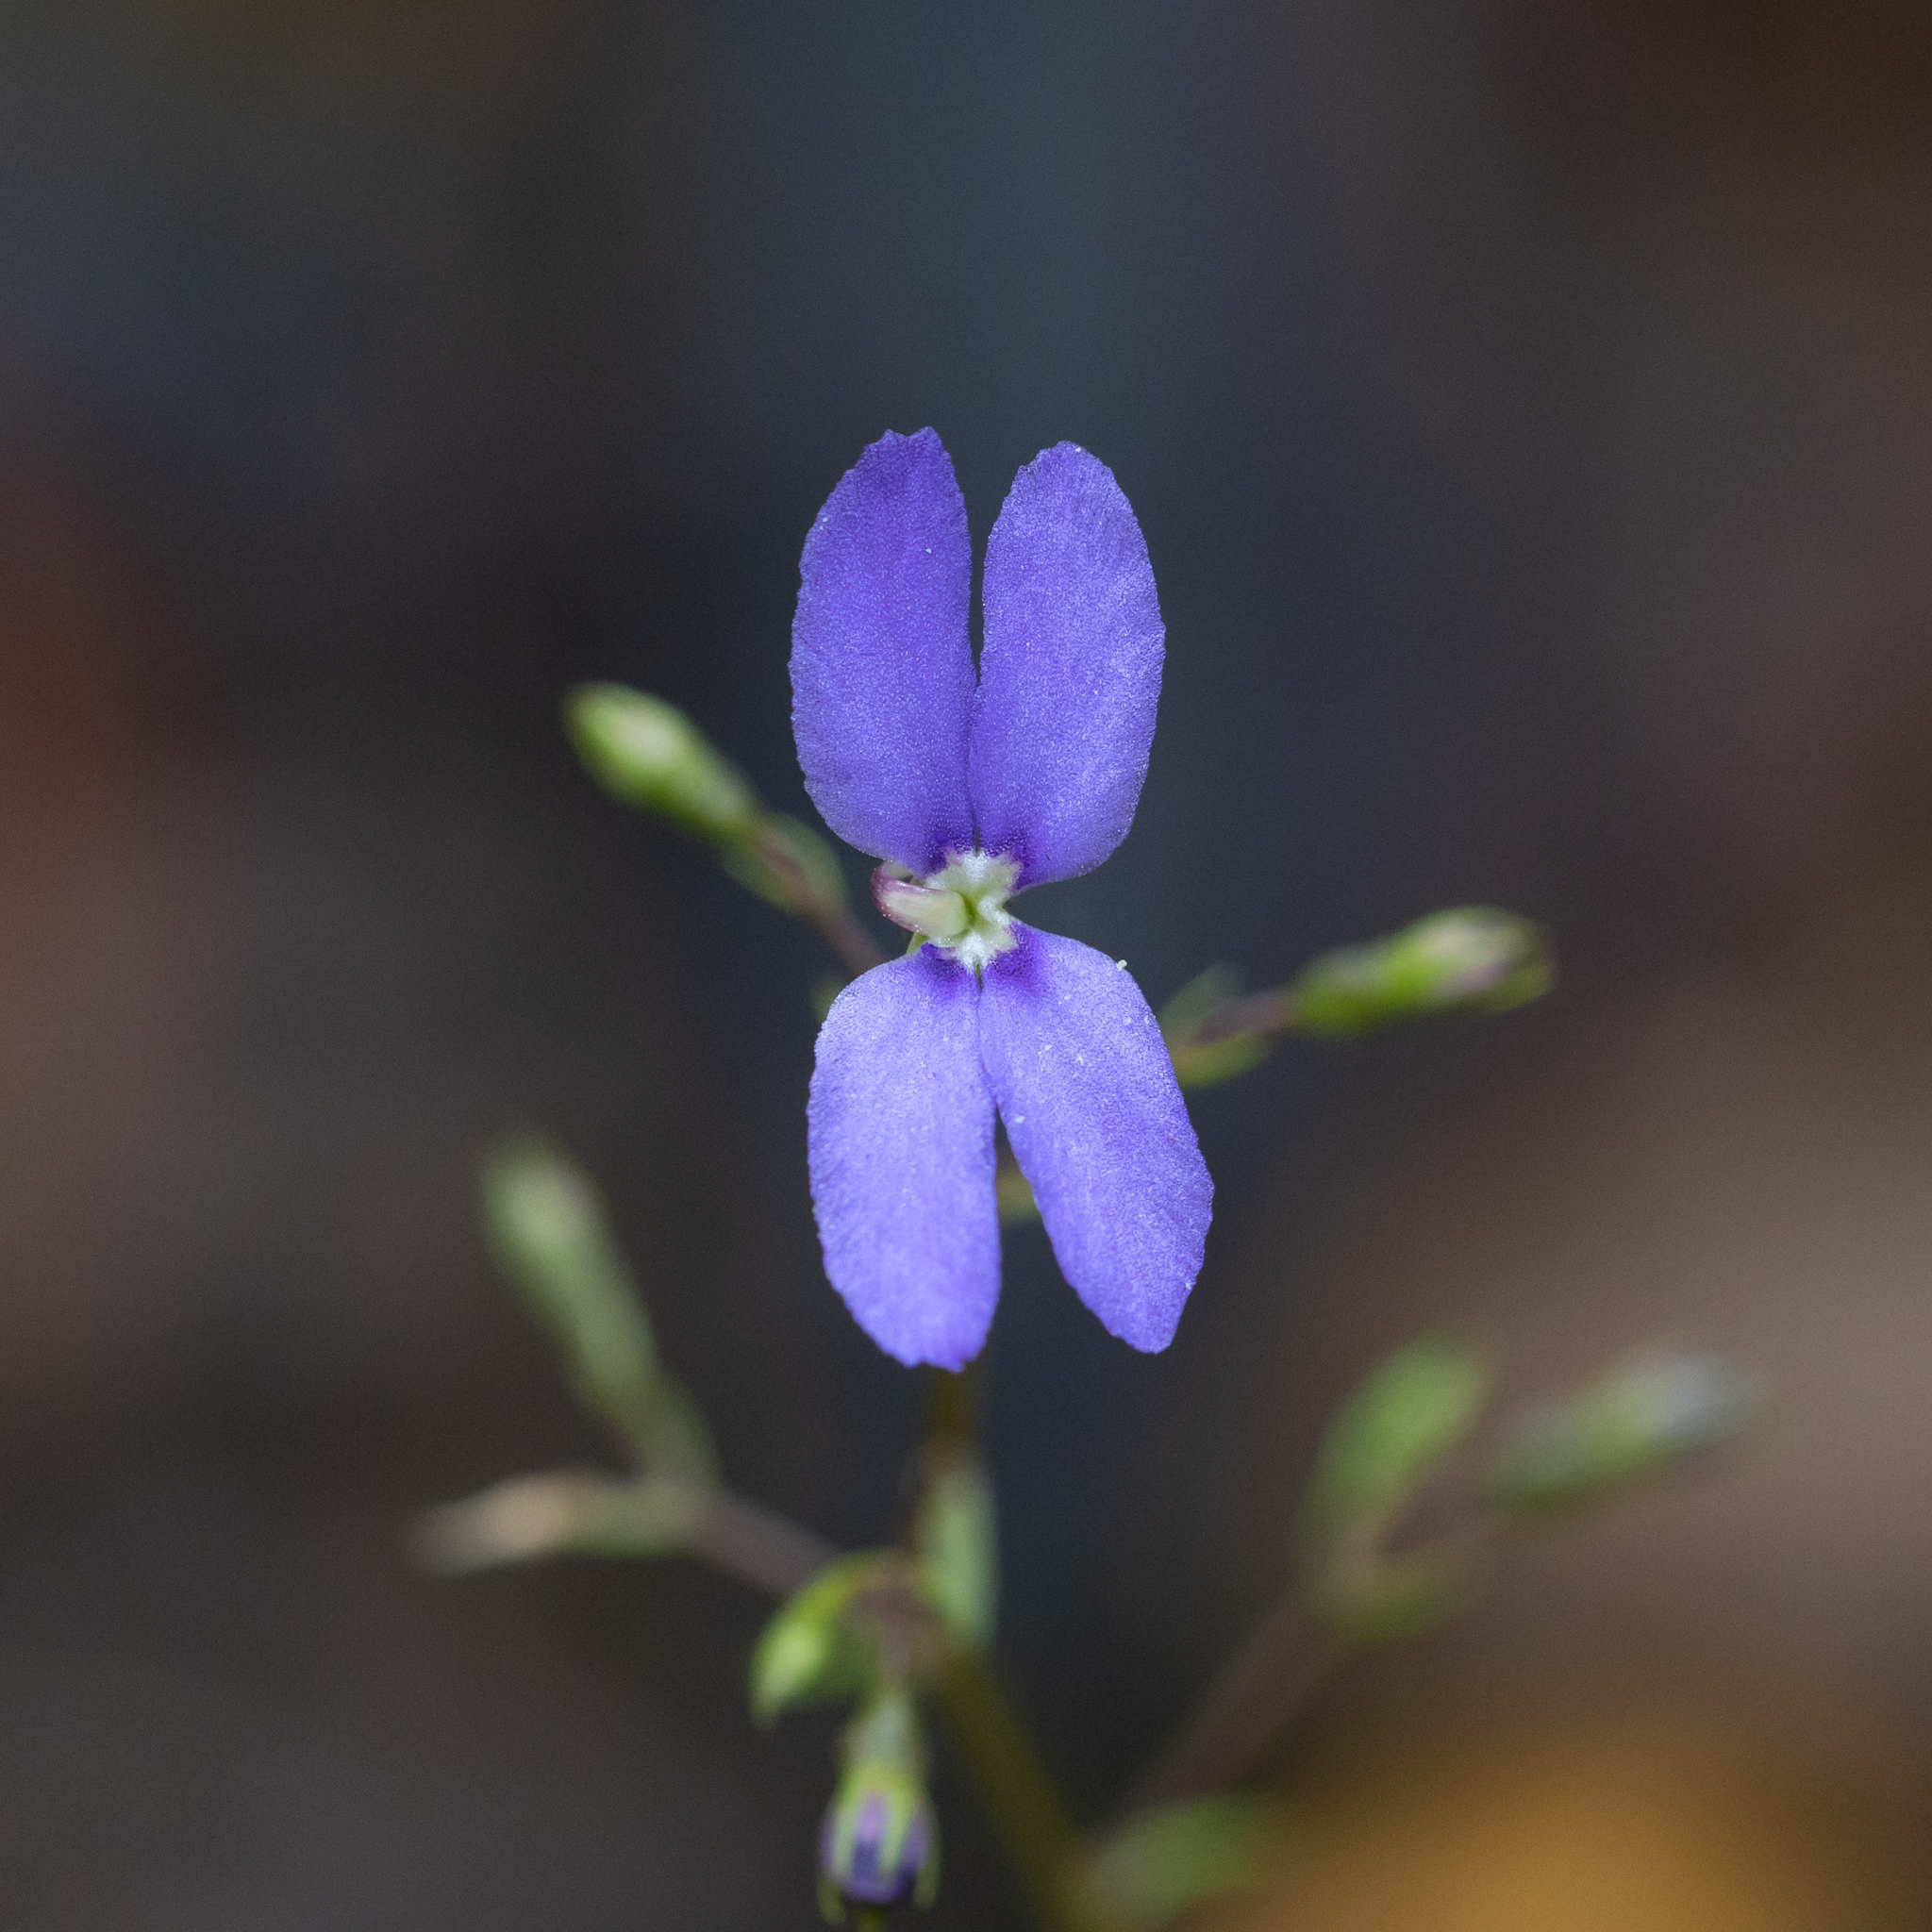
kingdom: Plantae
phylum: Tracheophyta
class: Magnoliopsida
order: Asterales
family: Stylidiaceae
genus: Stylidium
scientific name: Stylidium pritzelianum
